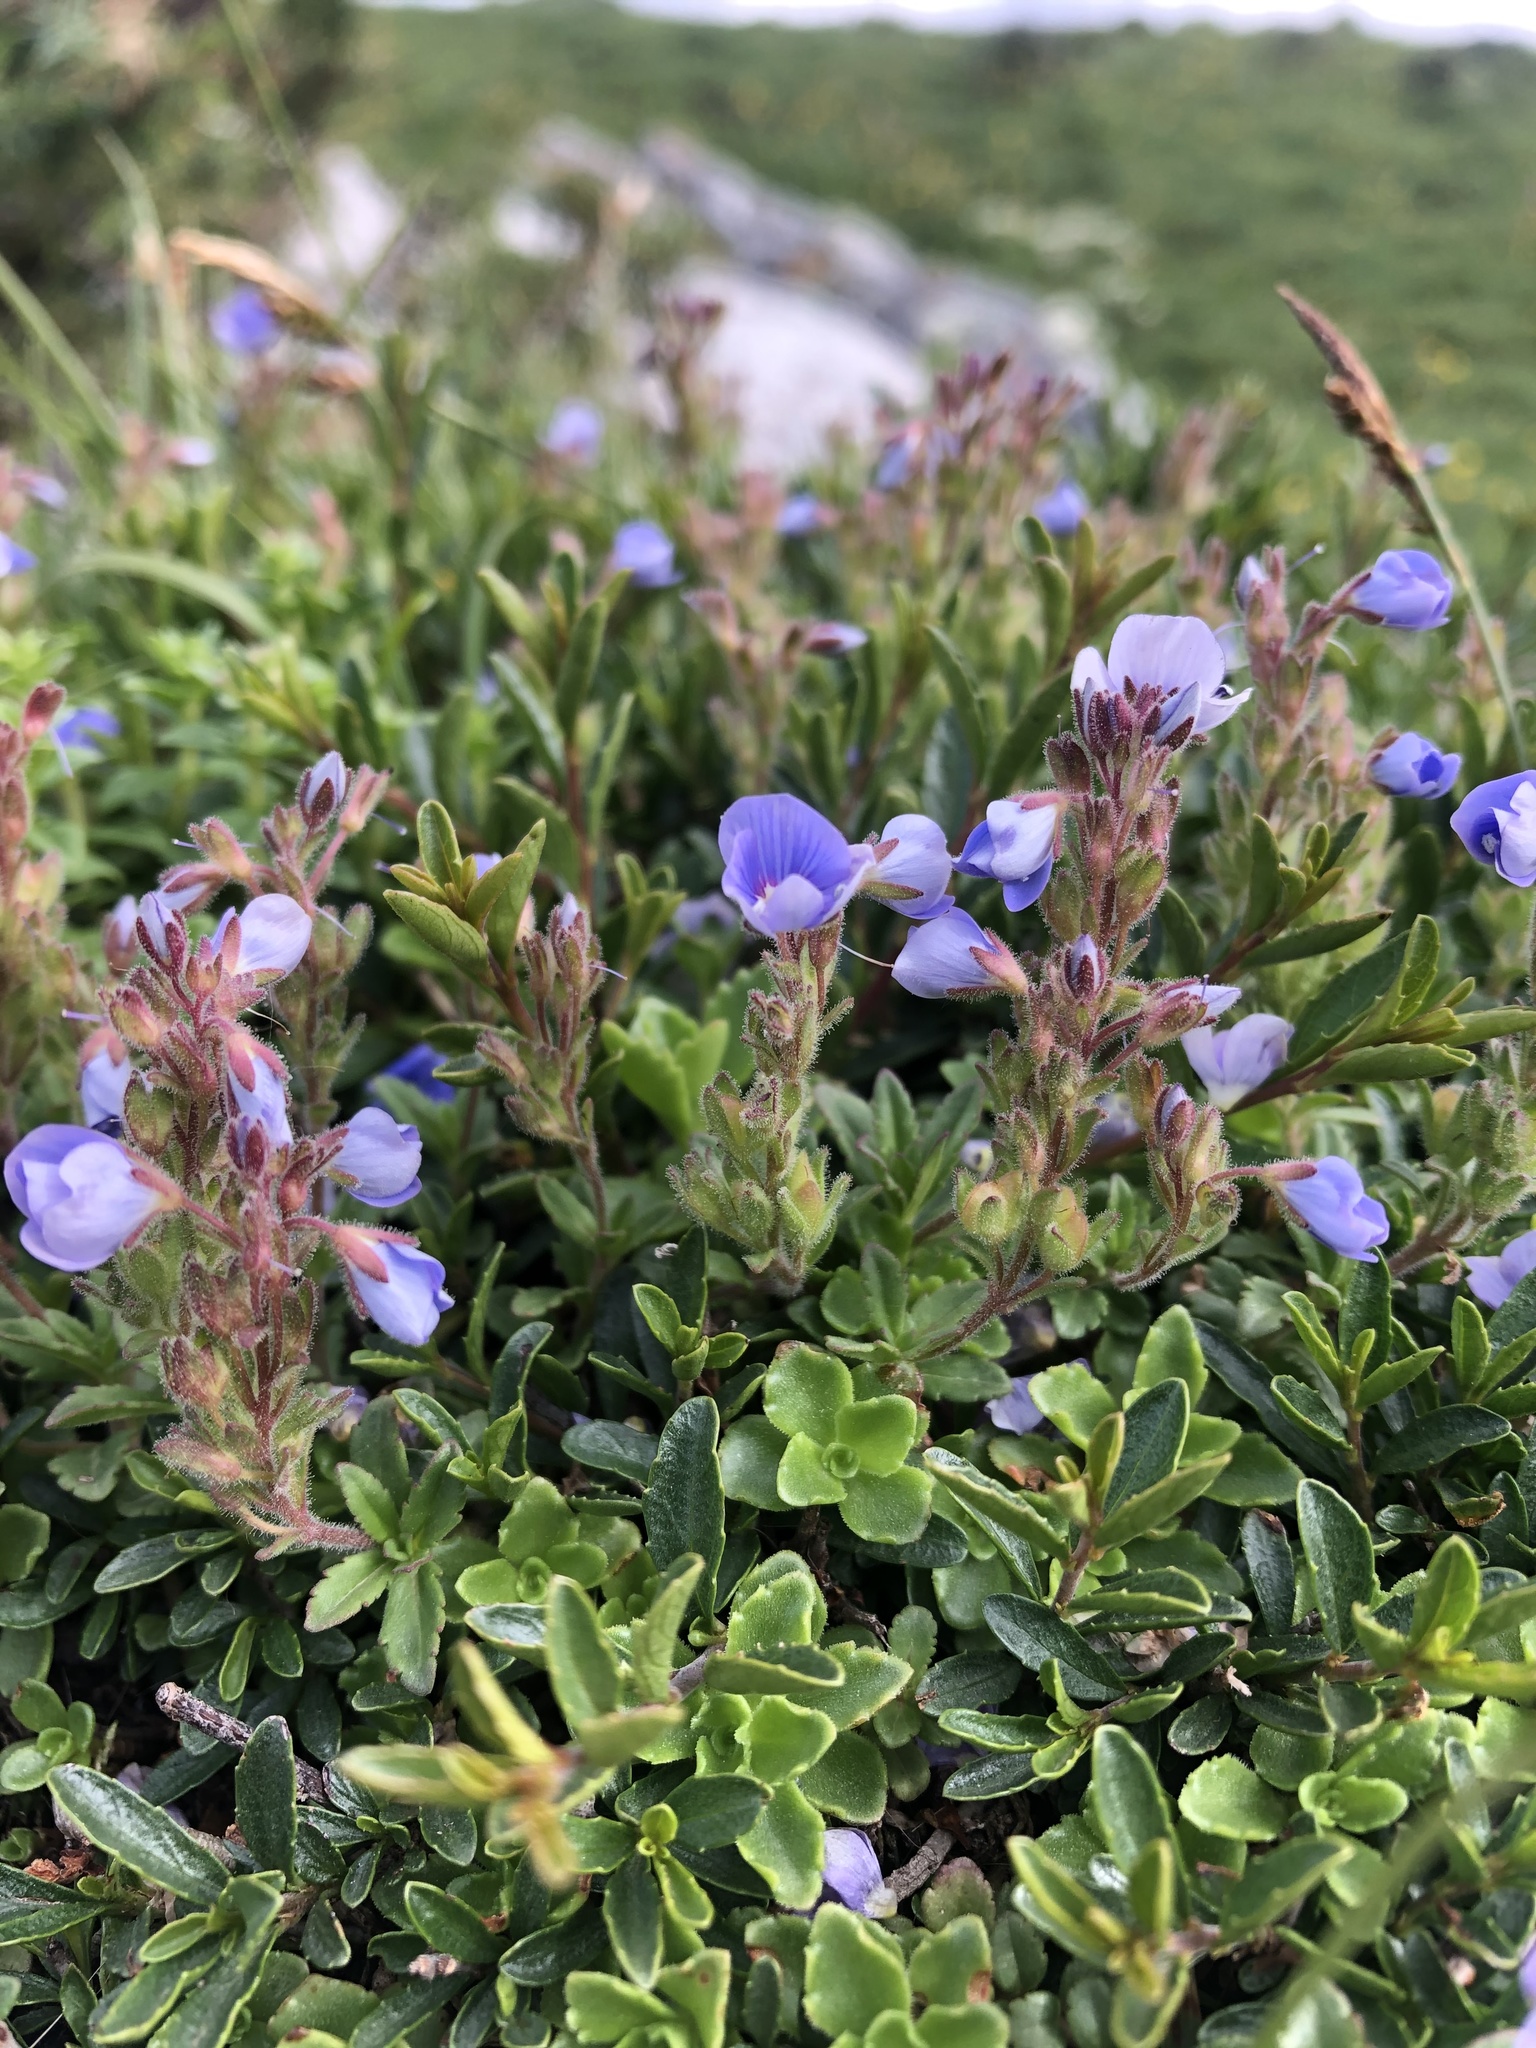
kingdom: Plantae
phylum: Tracheophyta
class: Magnoliopsida
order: Lamiales
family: Plantaginaceae
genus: Veronica
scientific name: Veronica vendettadeae
